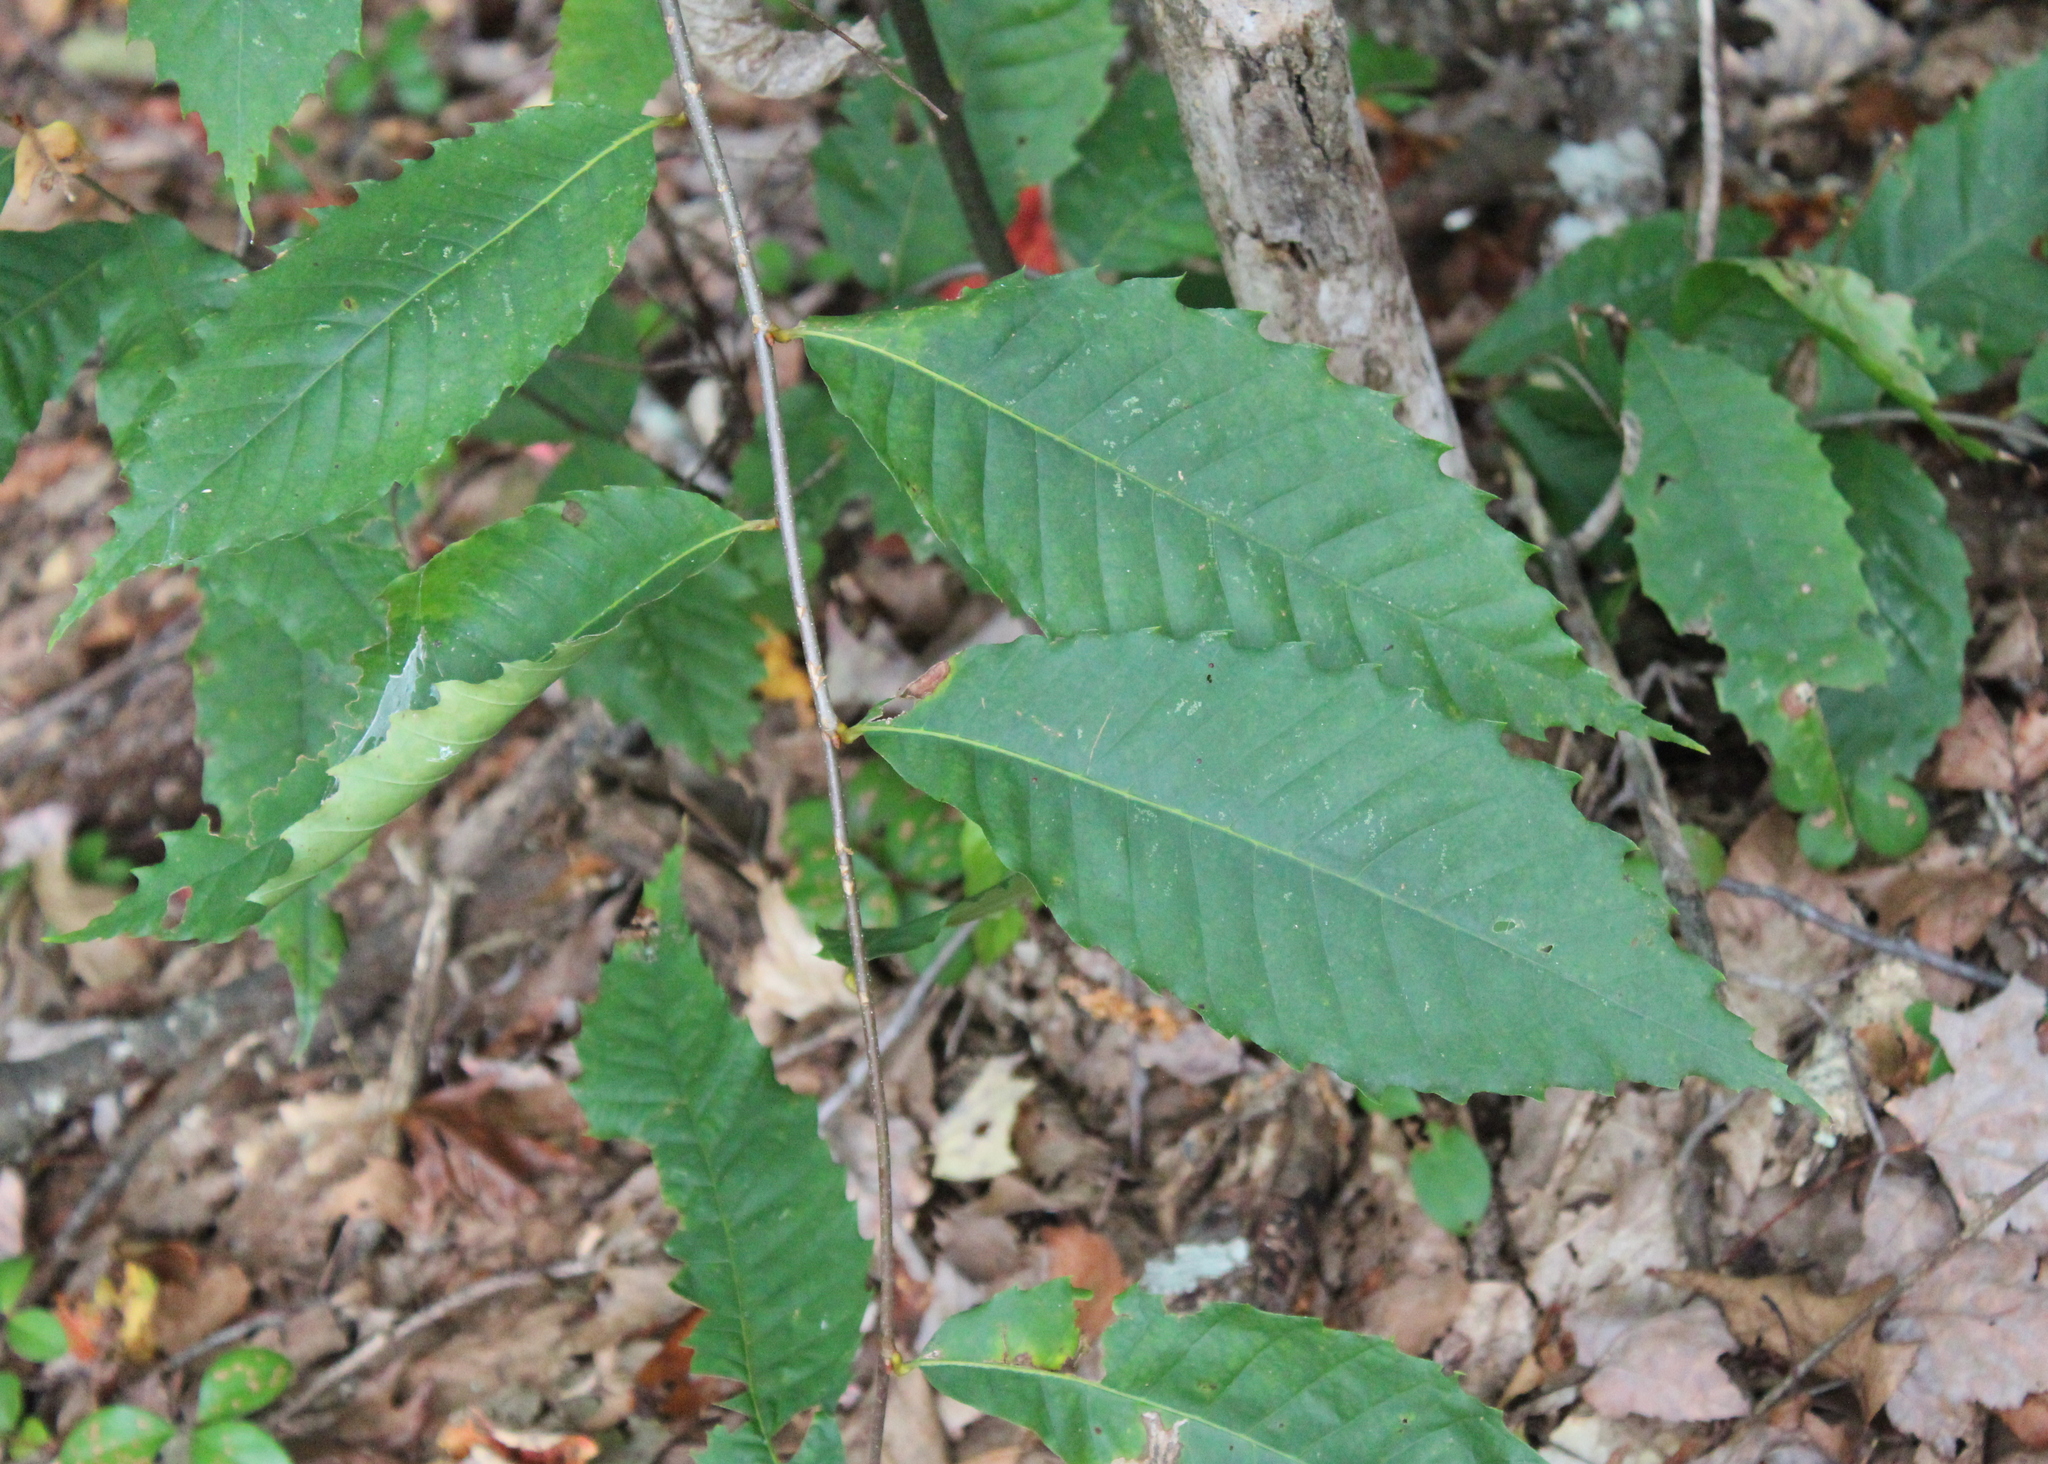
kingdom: Plantae
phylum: Tracheophyta
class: Magnoliopsida
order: Fagales
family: Fagaceae
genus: Castanea
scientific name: Castanea dentata
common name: American chestnut
